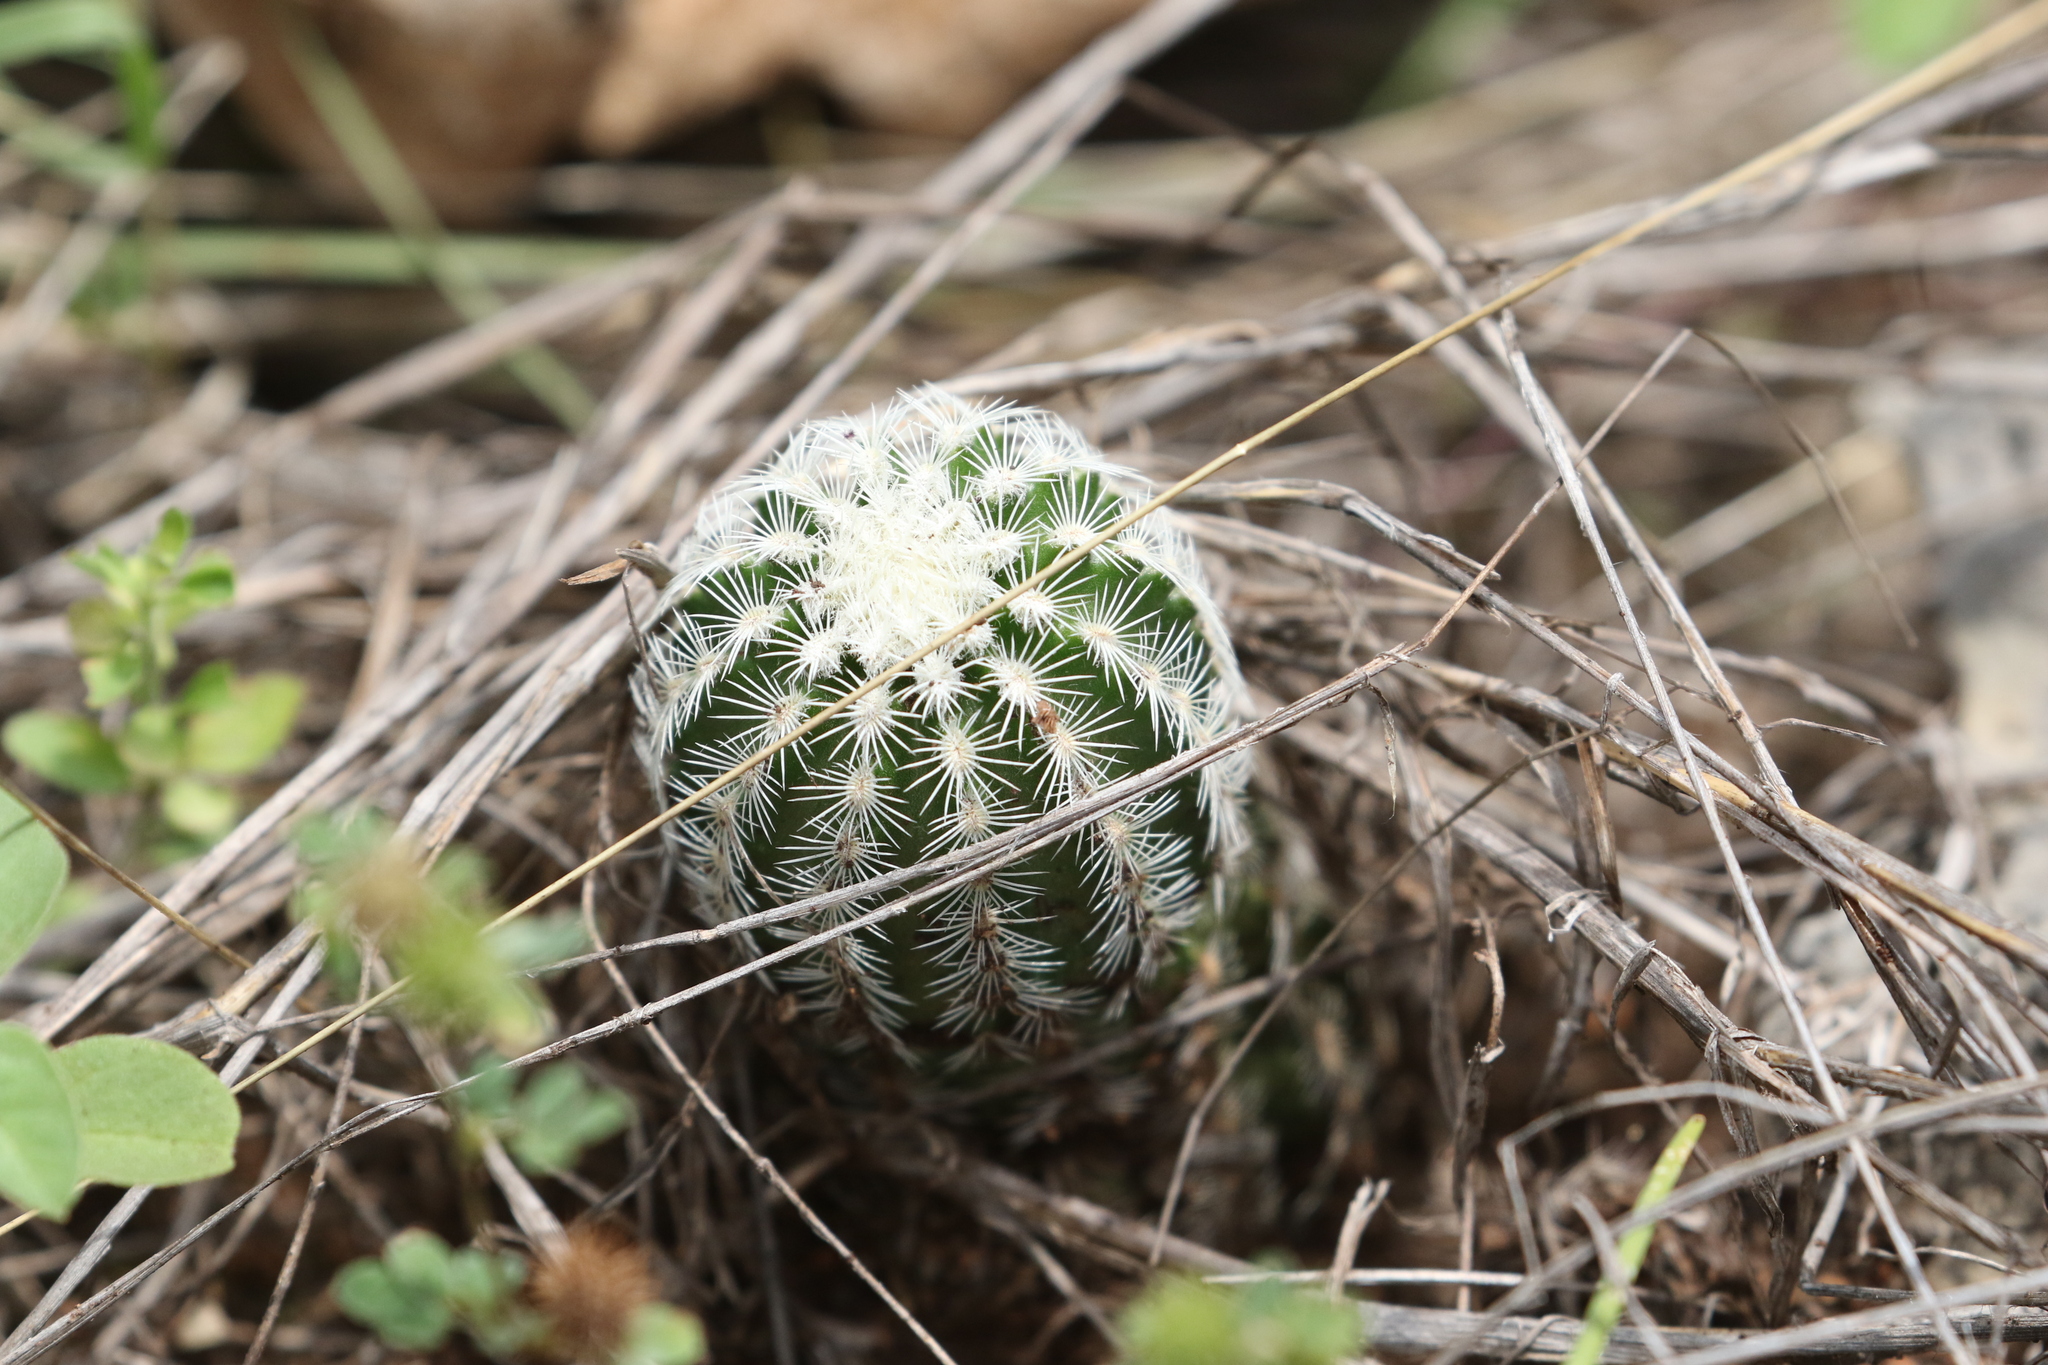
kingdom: Plantae
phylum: Tracheophyta
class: Magnoliopsida
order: Caryophyllales
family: Cactaceae
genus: Echinocereus
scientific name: Echinocereus reichenbachii
